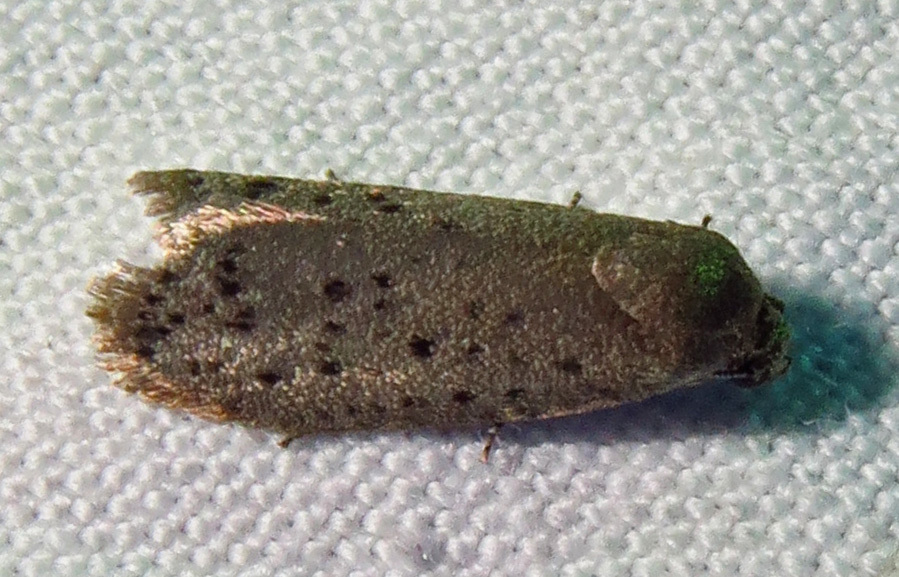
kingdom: Animalia
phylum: Arthropoda
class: Insecta
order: Lepidoptera
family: Galacticidae
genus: Homadaula
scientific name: Homadaula anisocentra
